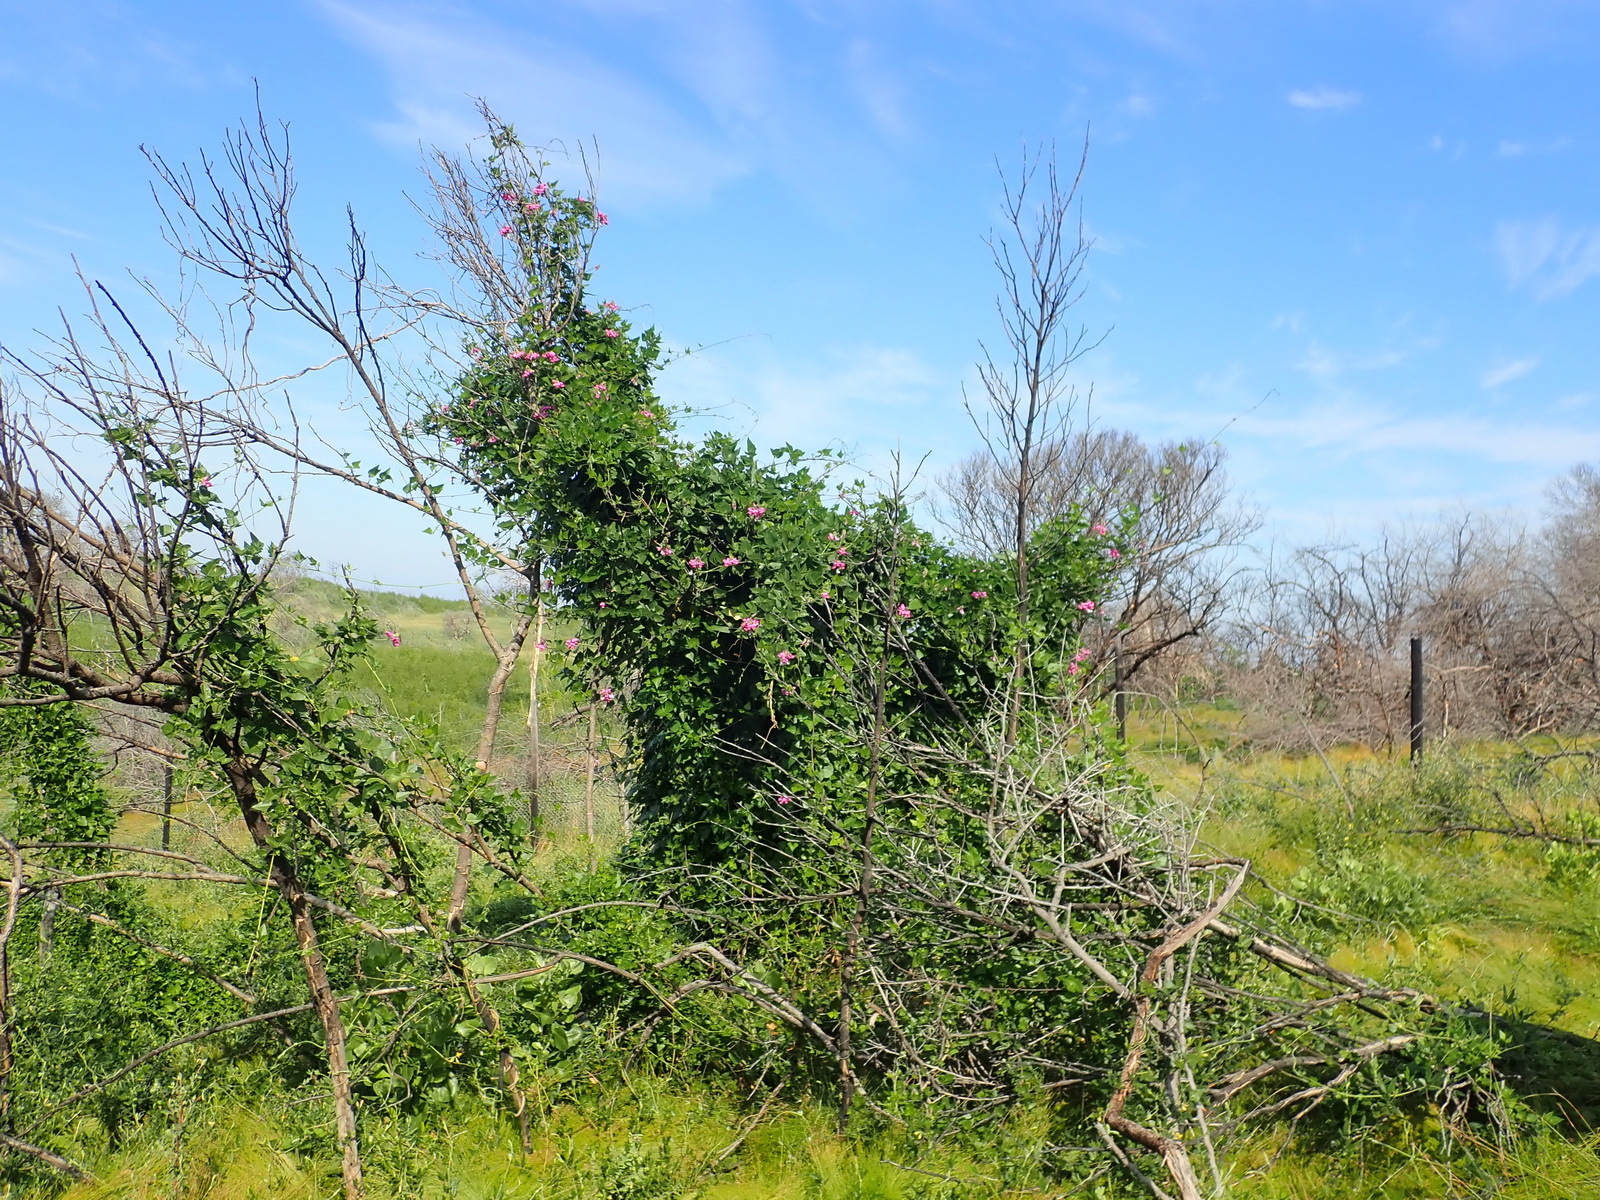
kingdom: Plantae
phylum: Tracheophyta
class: Magnoliopsida
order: Fabales
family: Fabaceae
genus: Dipogon
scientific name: Dipogon lignosus
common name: Okie bean
